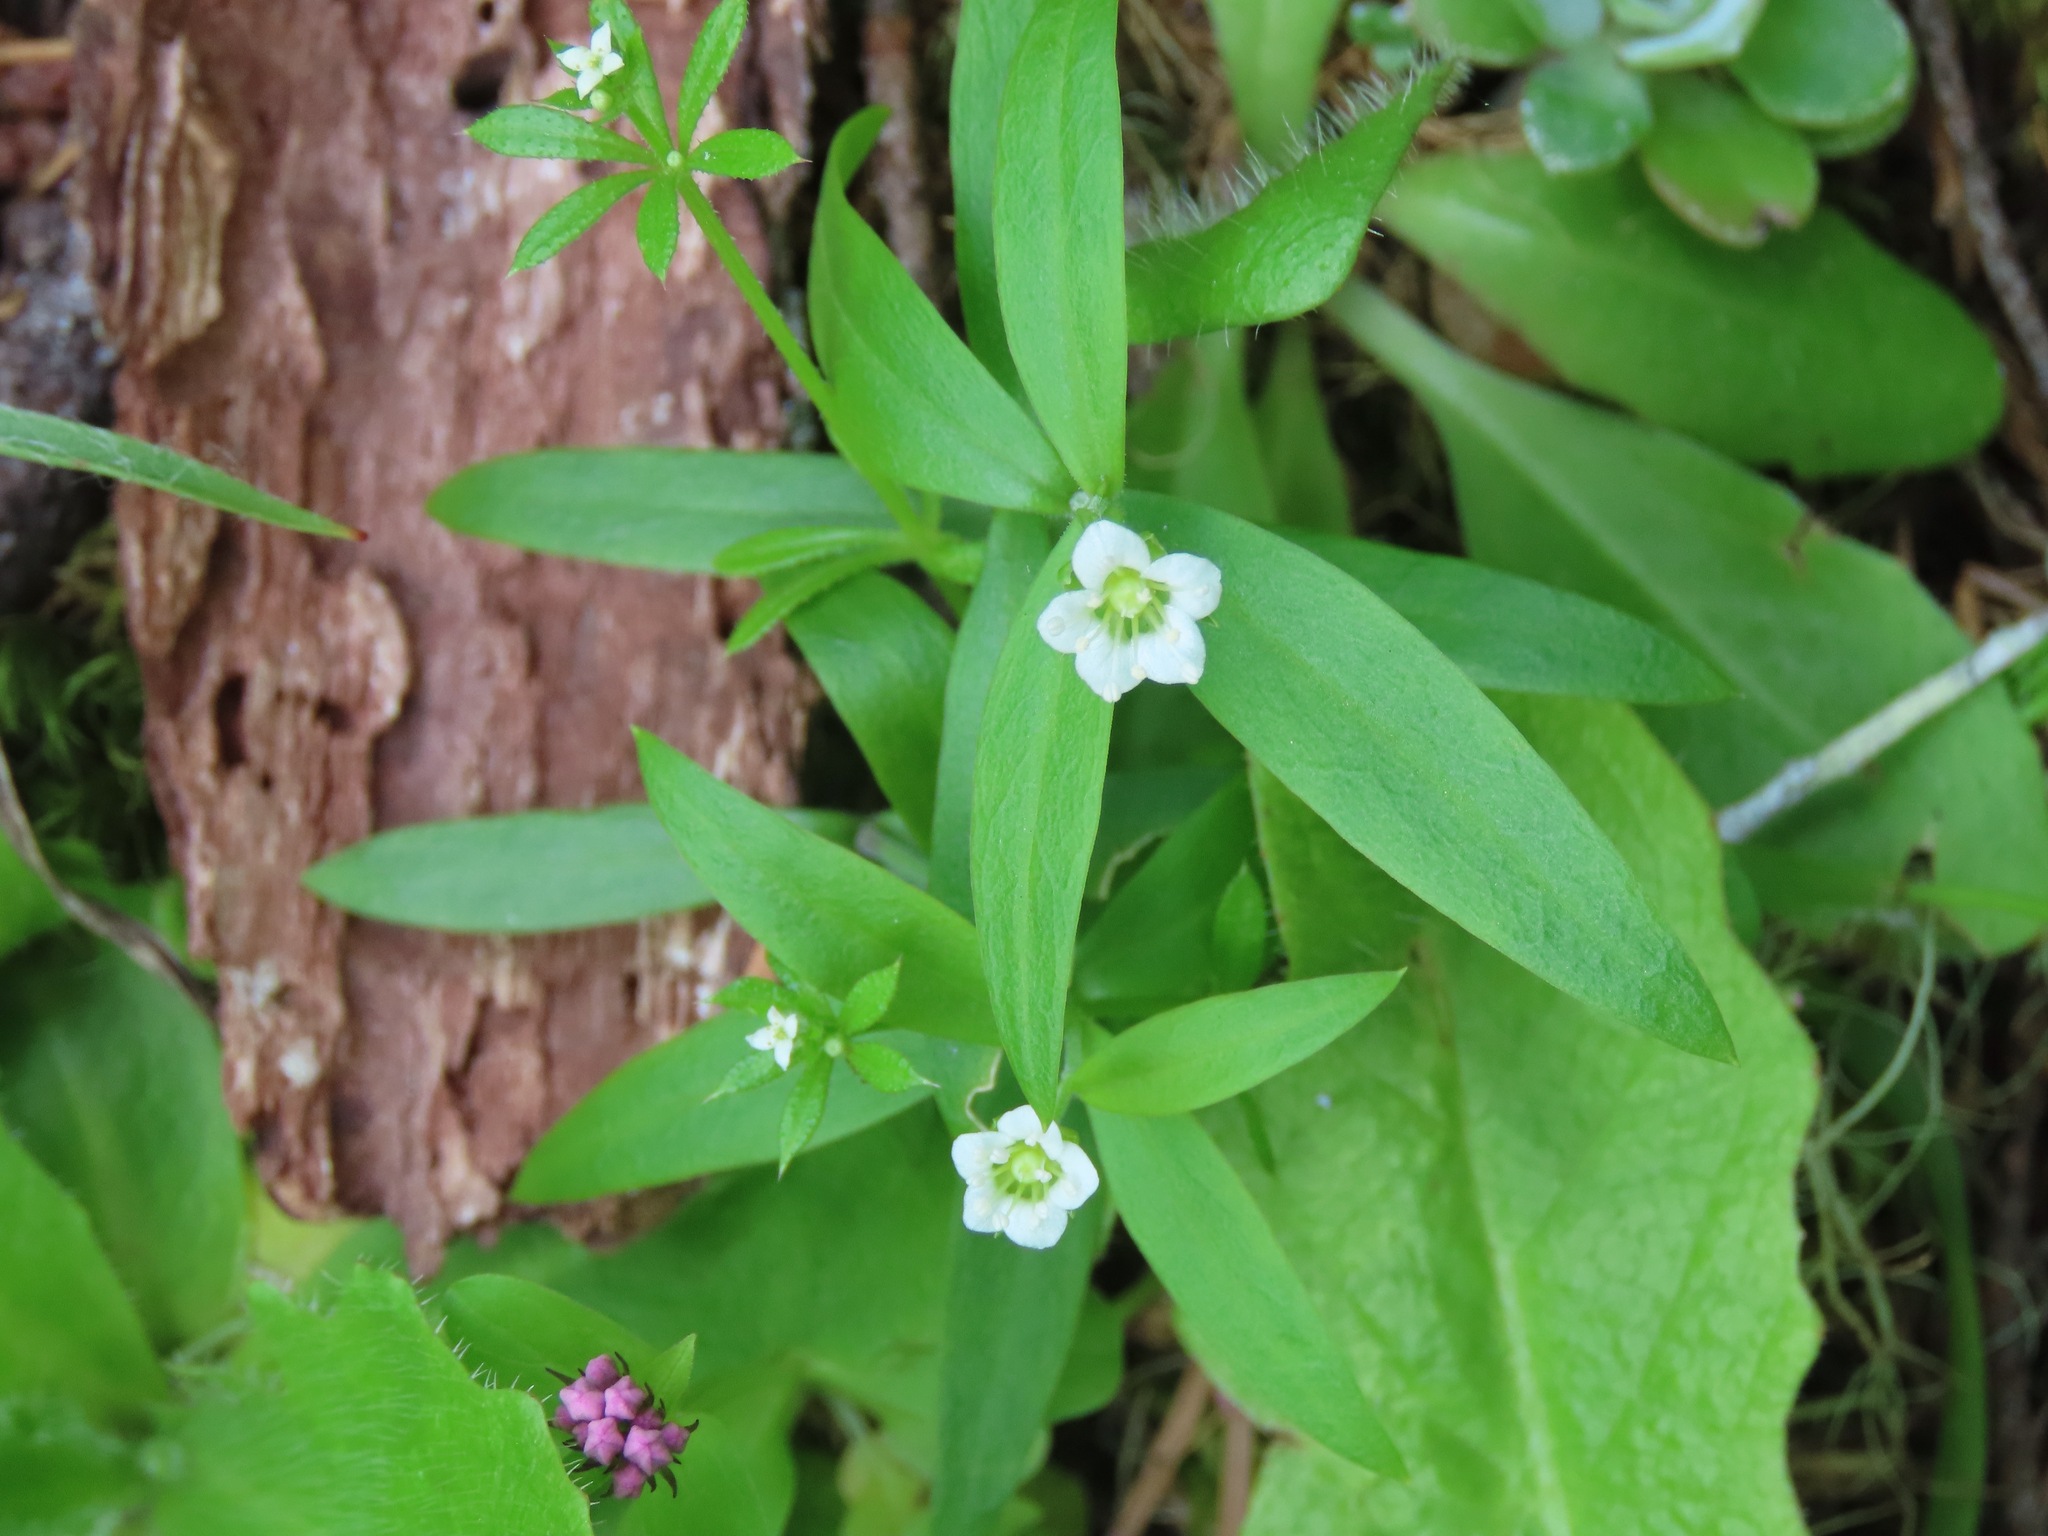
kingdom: Plantae
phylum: Tracheophyta
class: Magnoliopsida
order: Caryophyllales
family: Caryophyllaceae
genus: Moehringia
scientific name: Moehringia macrophylla
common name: Big-leaf sandwort
